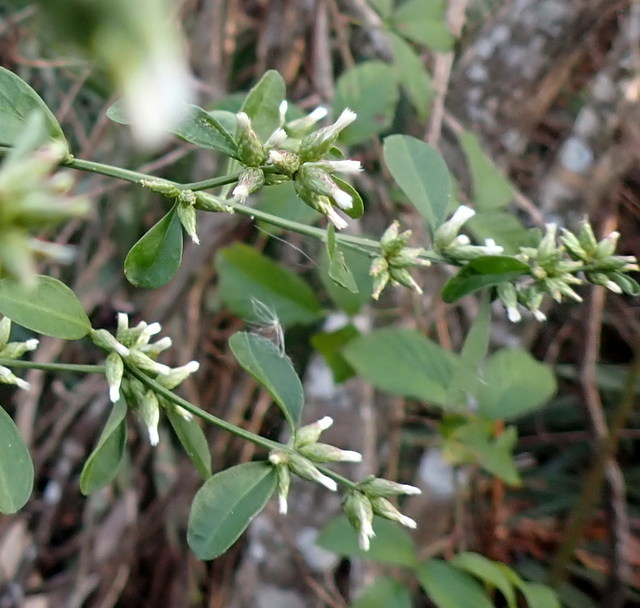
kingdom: Plantae
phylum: Tracheophyta
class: Magnoliopsida
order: Asterales
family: Asteraceae
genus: Baccharis
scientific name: Baccharis glomeruliflora
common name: Silverling groundsel bush
